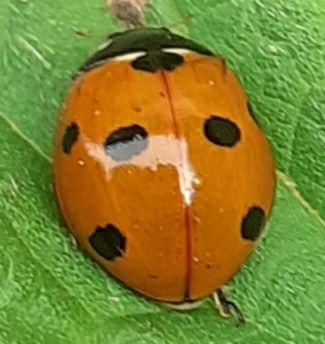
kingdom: Animalia
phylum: Arthropoda
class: Insecta
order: Coleoptera
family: Coccinellidae
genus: Coccinella
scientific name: Coccinella septempunctata
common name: Sevenspotted lady beetle
